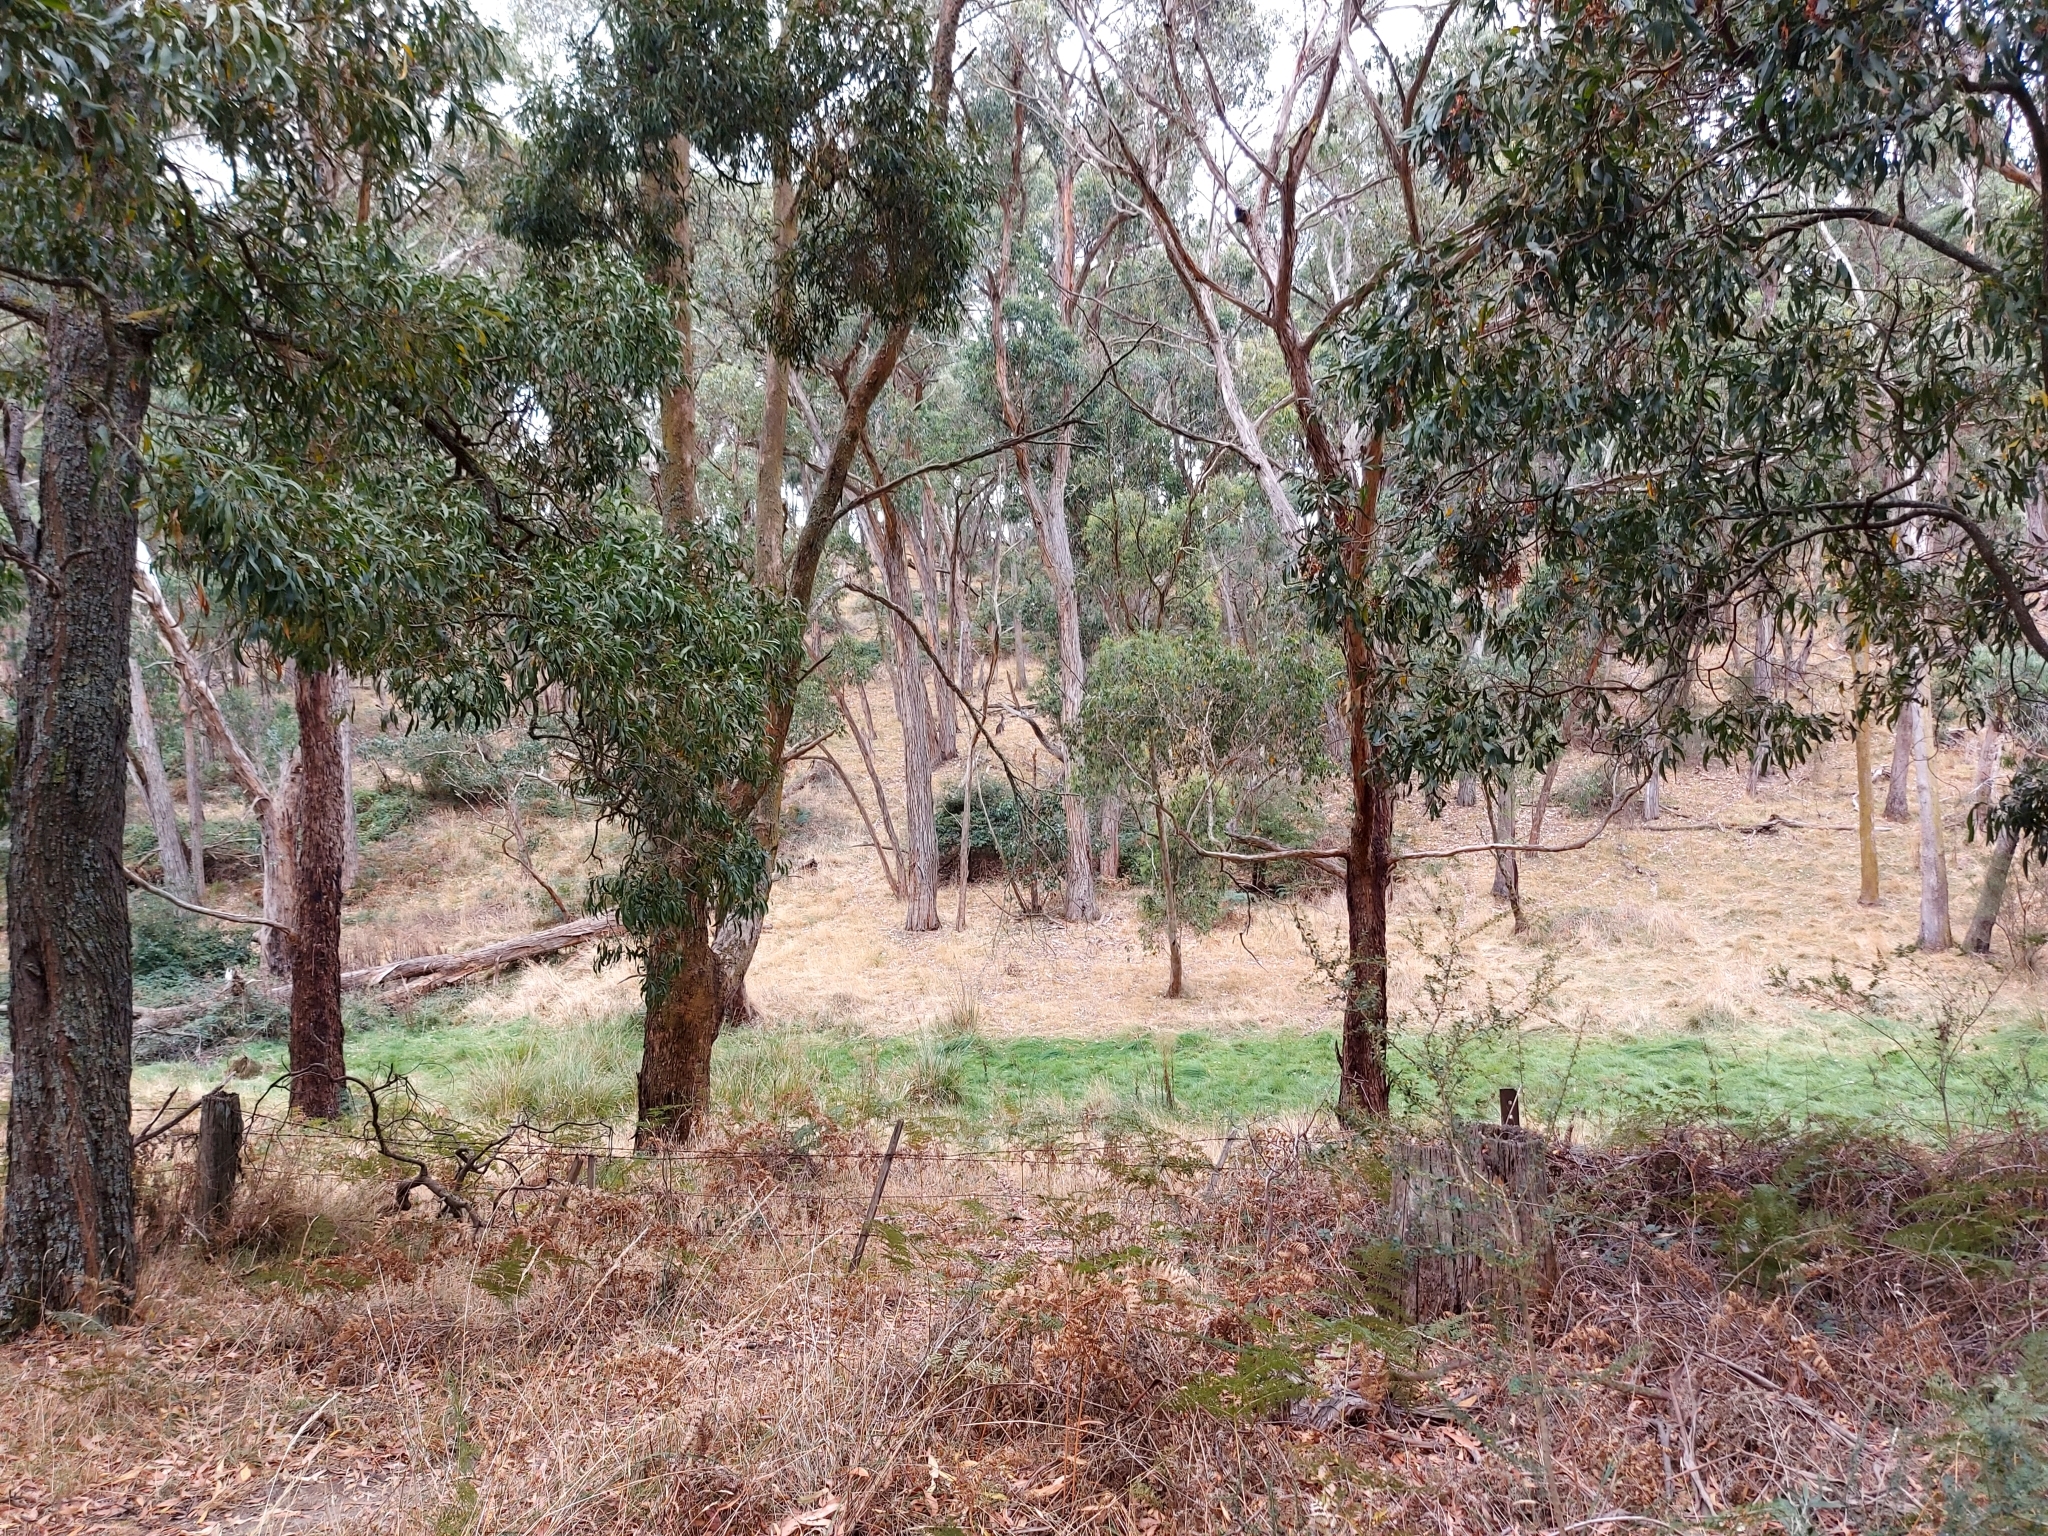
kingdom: Animalia
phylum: Chordata
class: Mammalia
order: Diprotodontia
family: Macropodidae
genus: Macropus
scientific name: Macropus giganteus
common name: Eastern grey kangaroo
